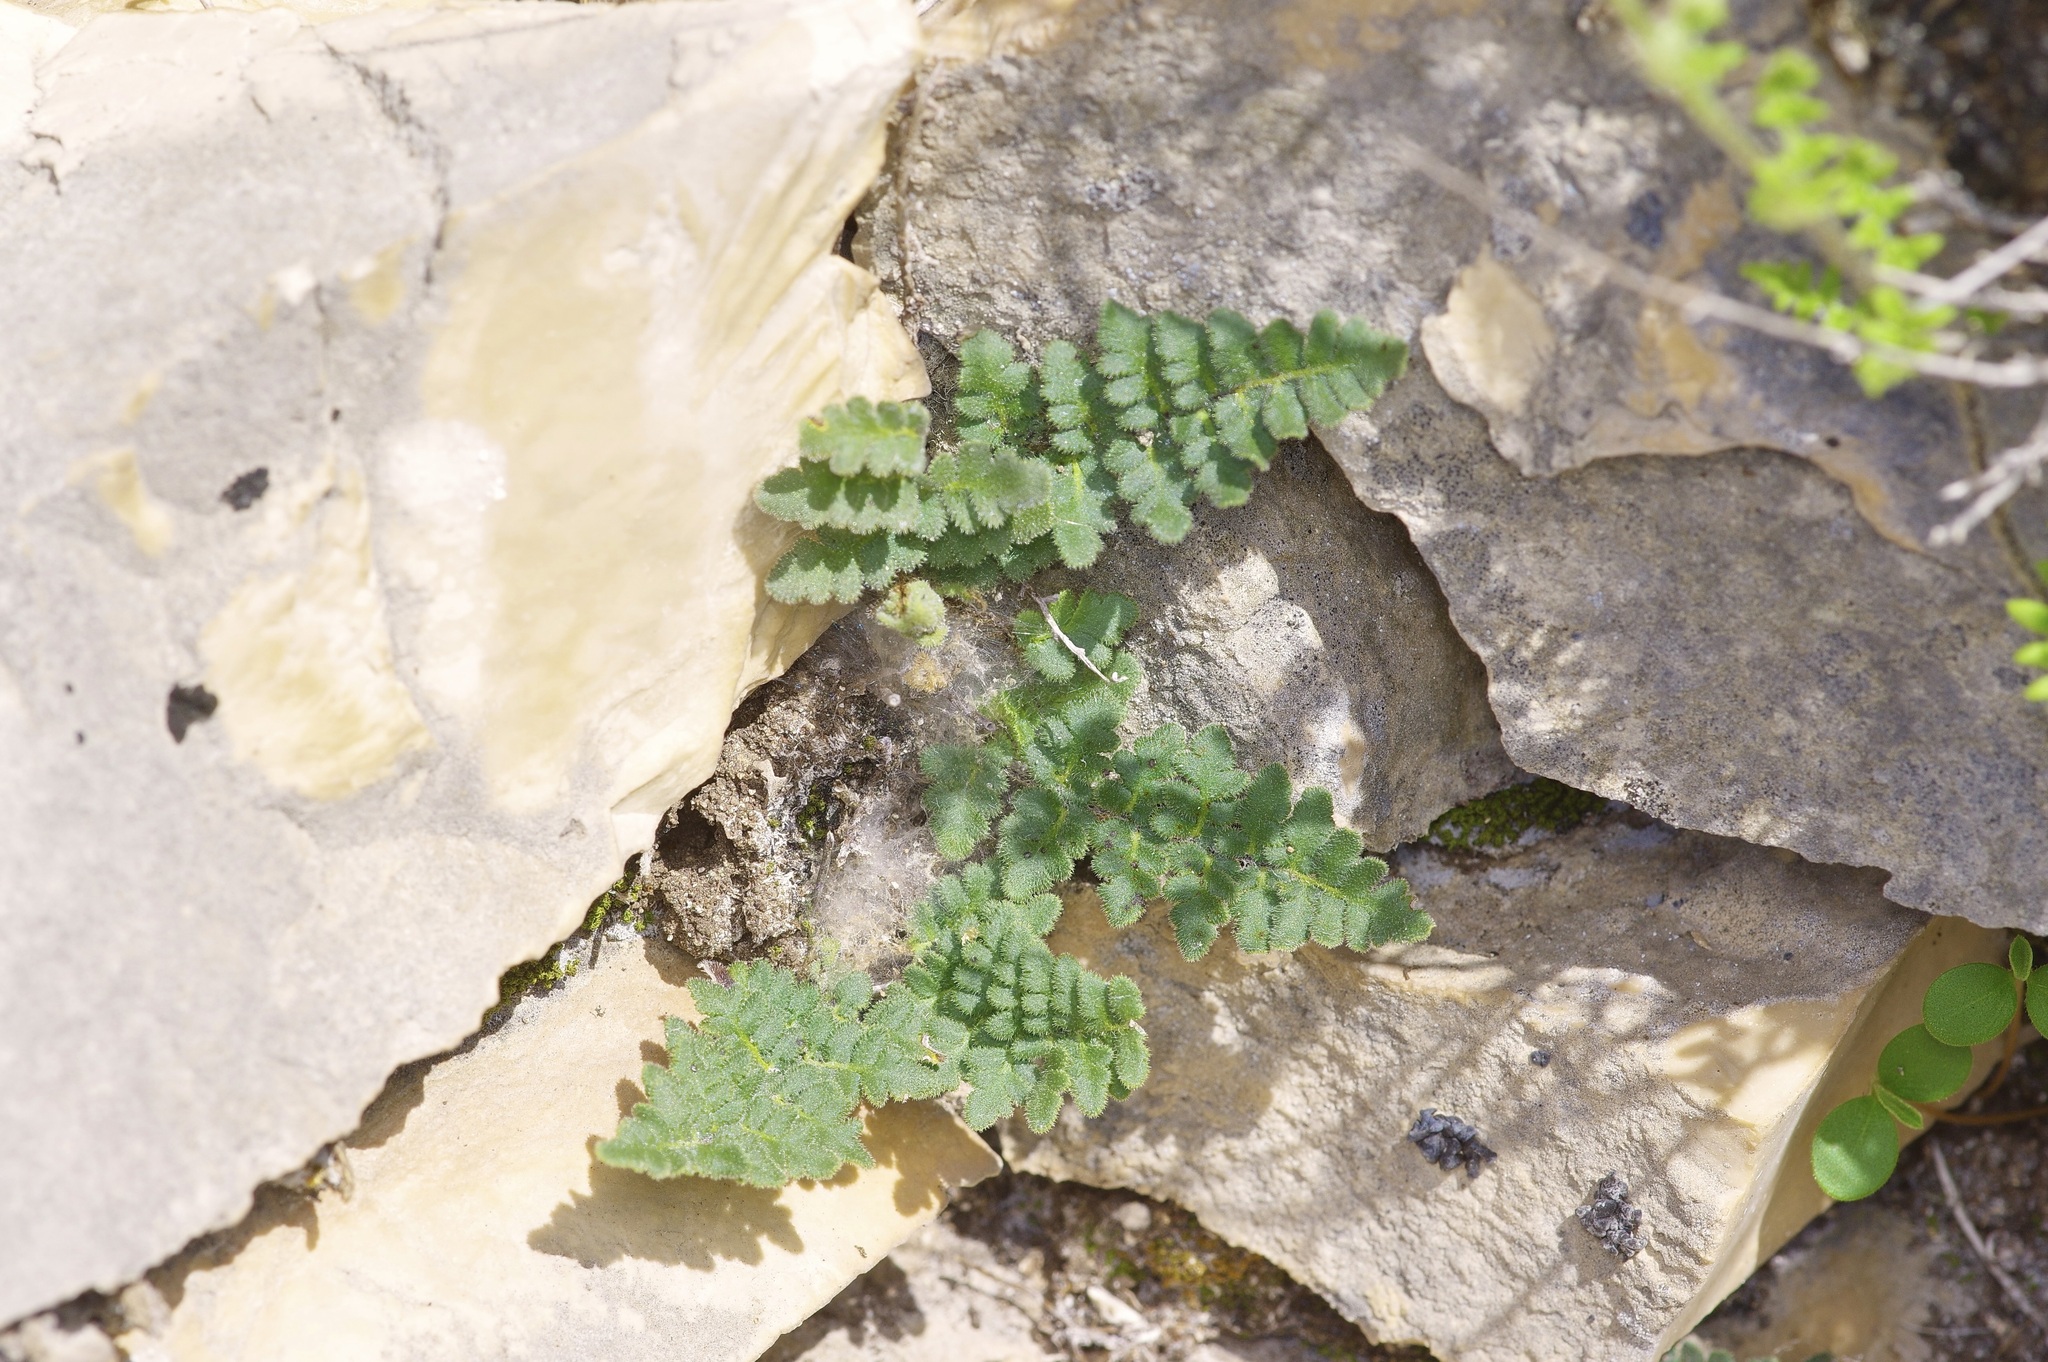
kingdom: Plantae
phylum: Tracheophyta
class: Polypodiopsida
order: Polypodiales
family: Pteridaceae
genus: Myriopteris
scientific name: Myriopteris scabra
